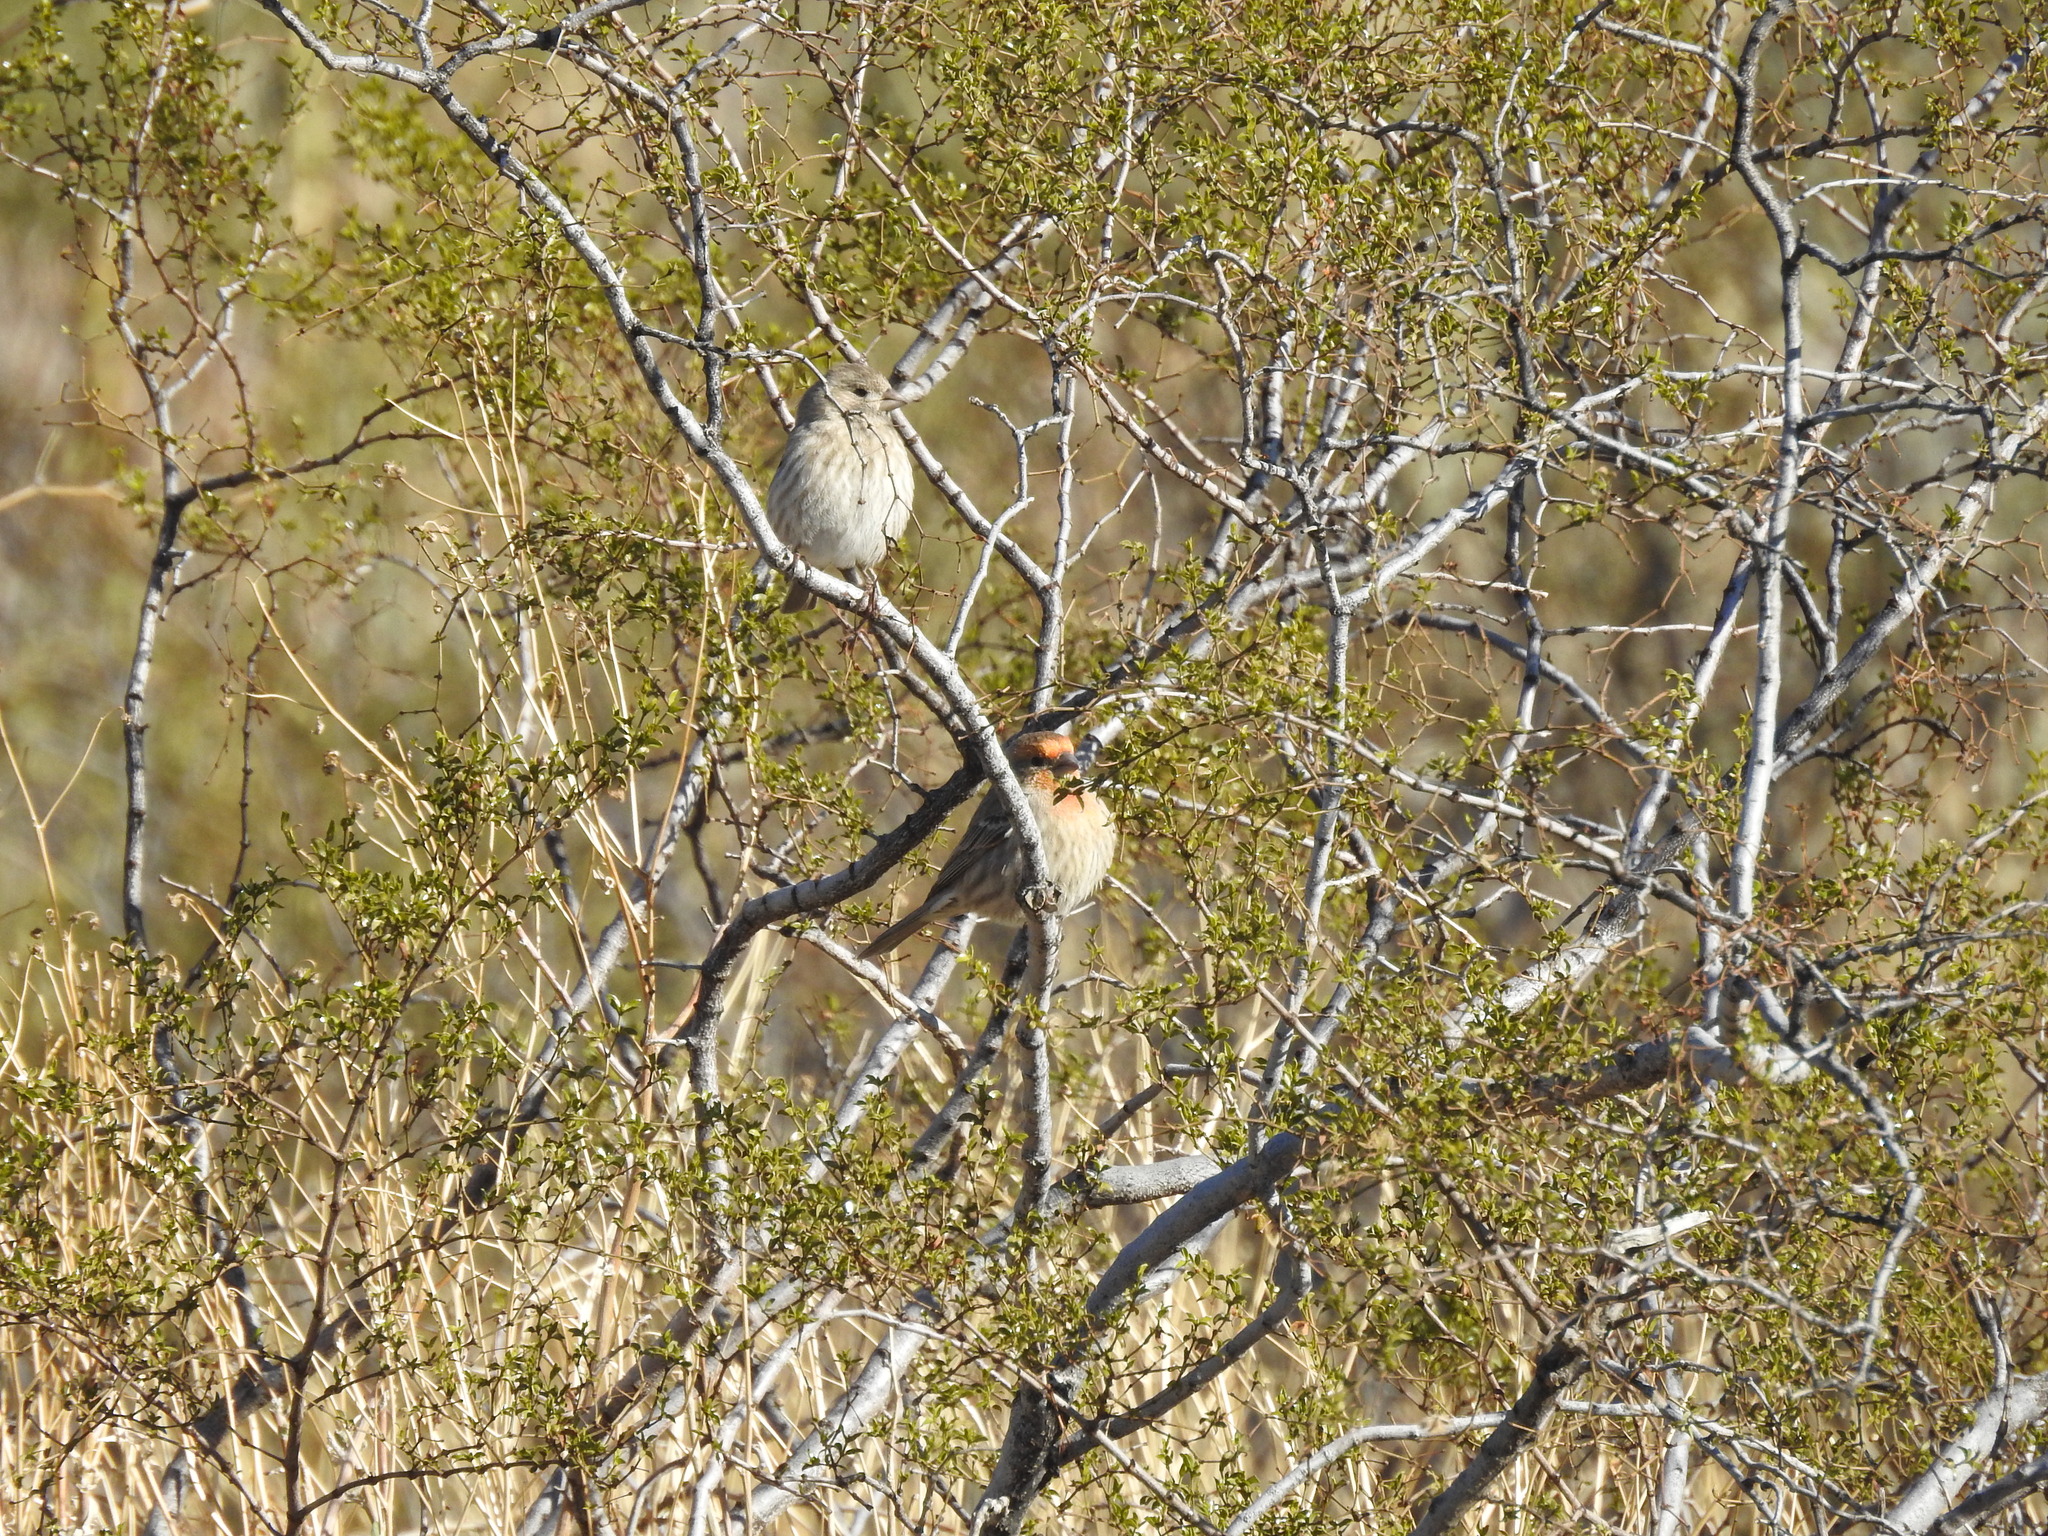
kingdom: Animalia
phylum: Chordata
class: Aves
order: Passeriformes
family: Fringillidae
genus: Haemorhous
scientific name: Haemorhous mexicanus
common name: House finch
